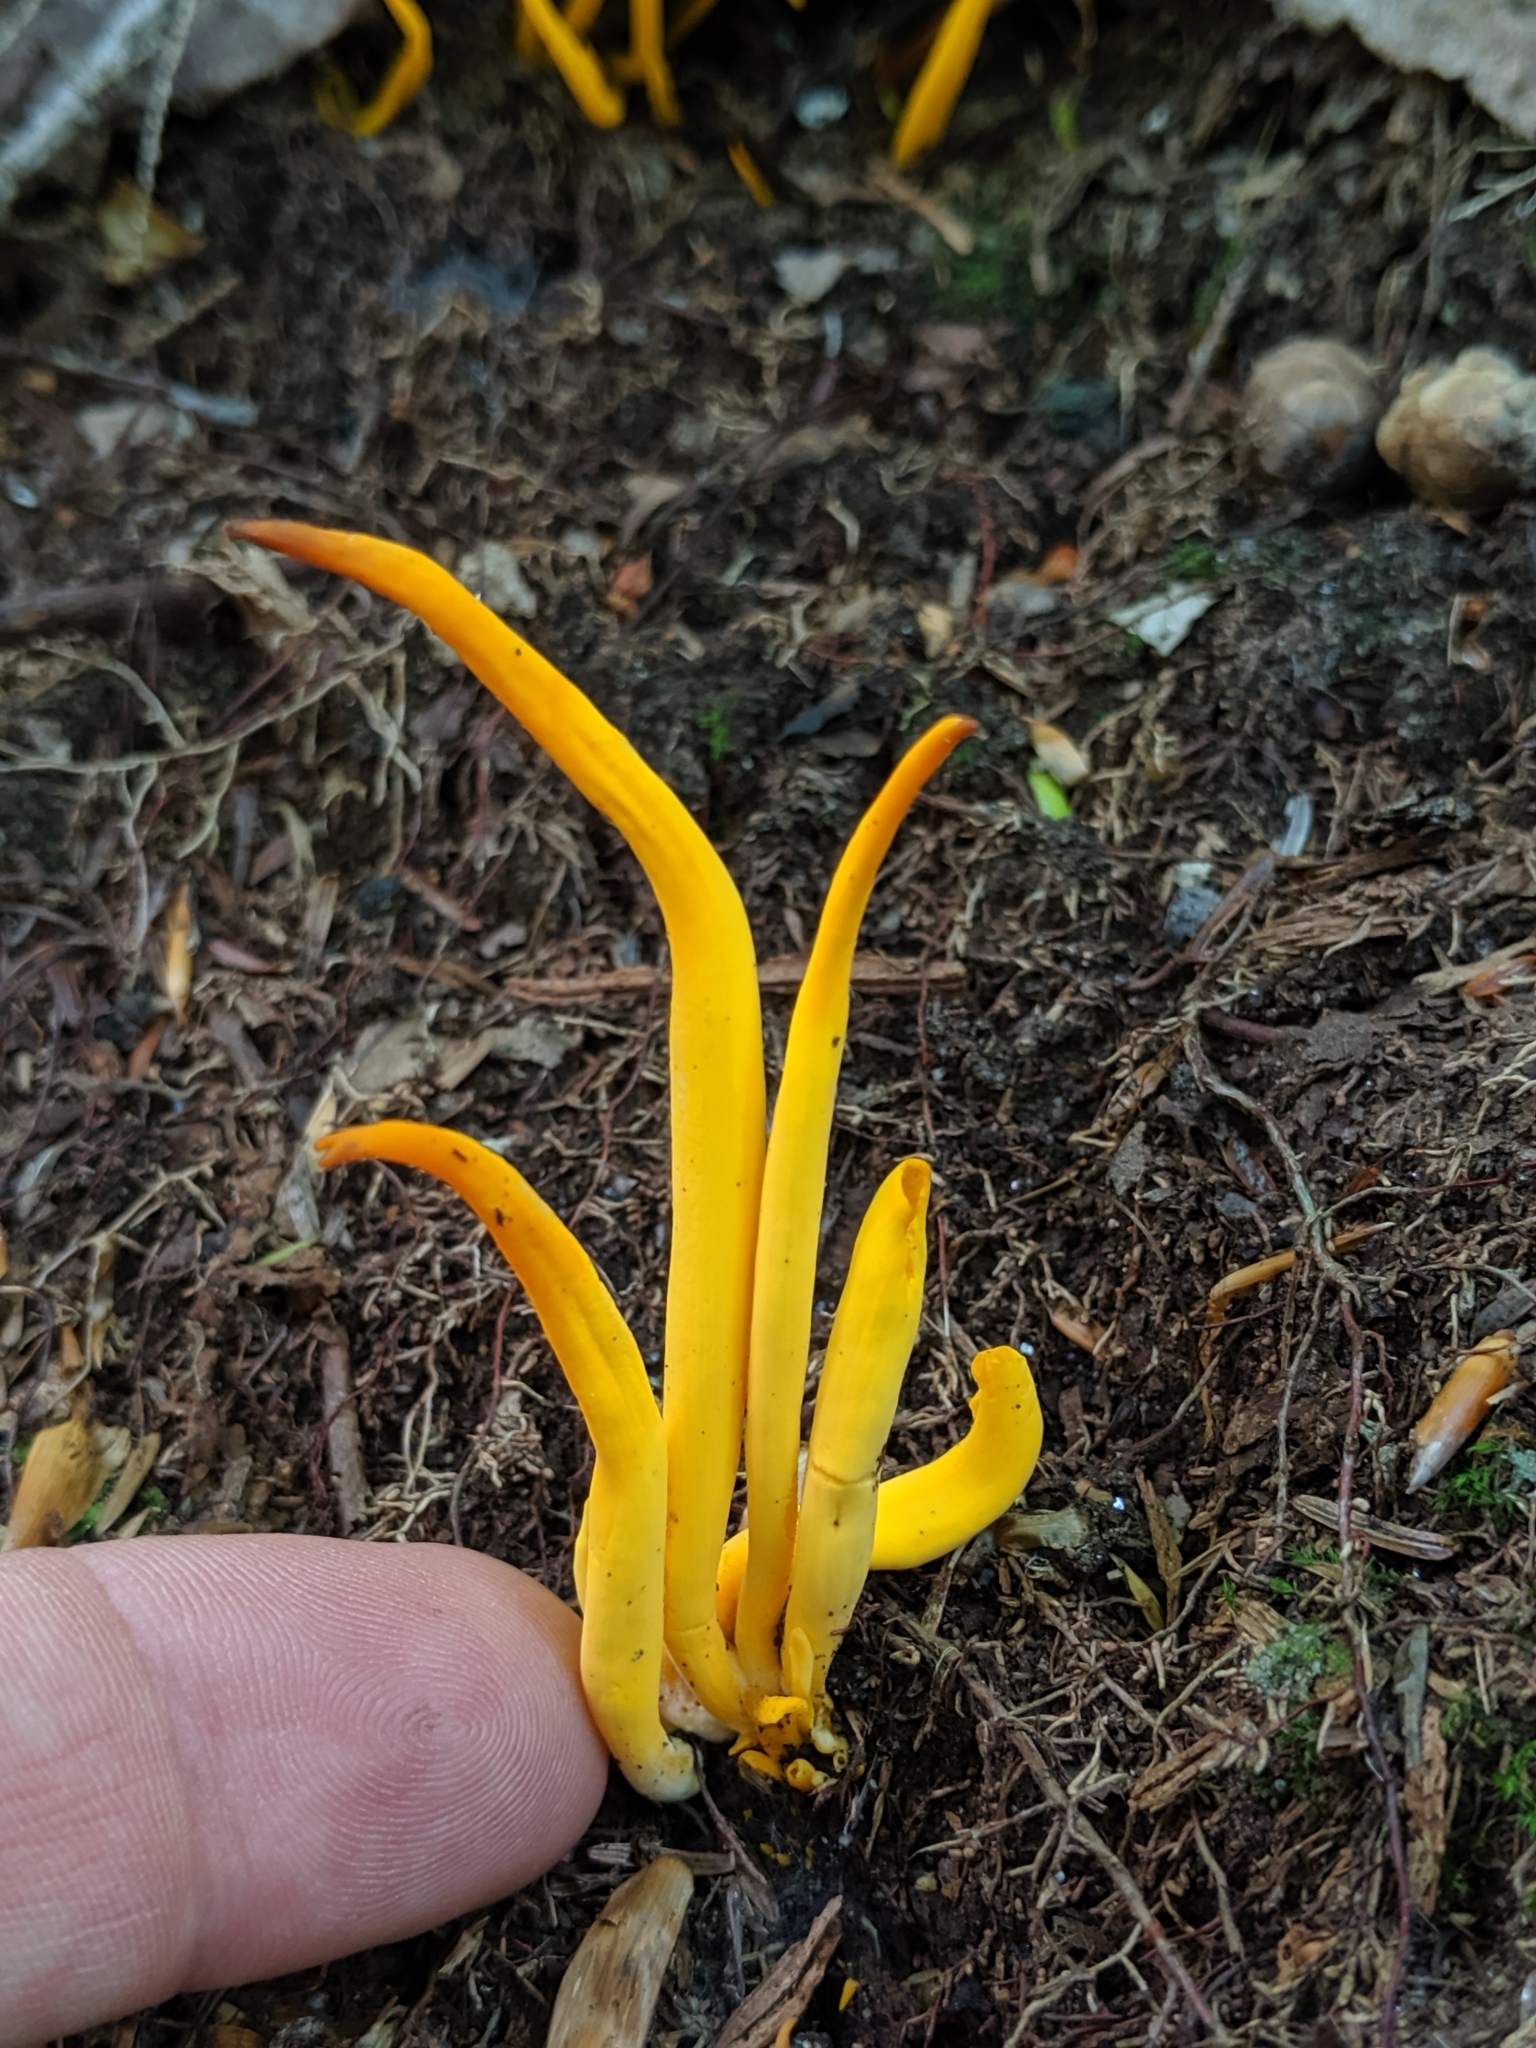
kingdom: Fungi
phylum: Basidiomycota
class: Agaricomycetes
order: Agaricales
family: Clavariaceae
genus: Clavulinopsis
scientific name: Clavulinopsis fusiformis
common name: Golden spindles
